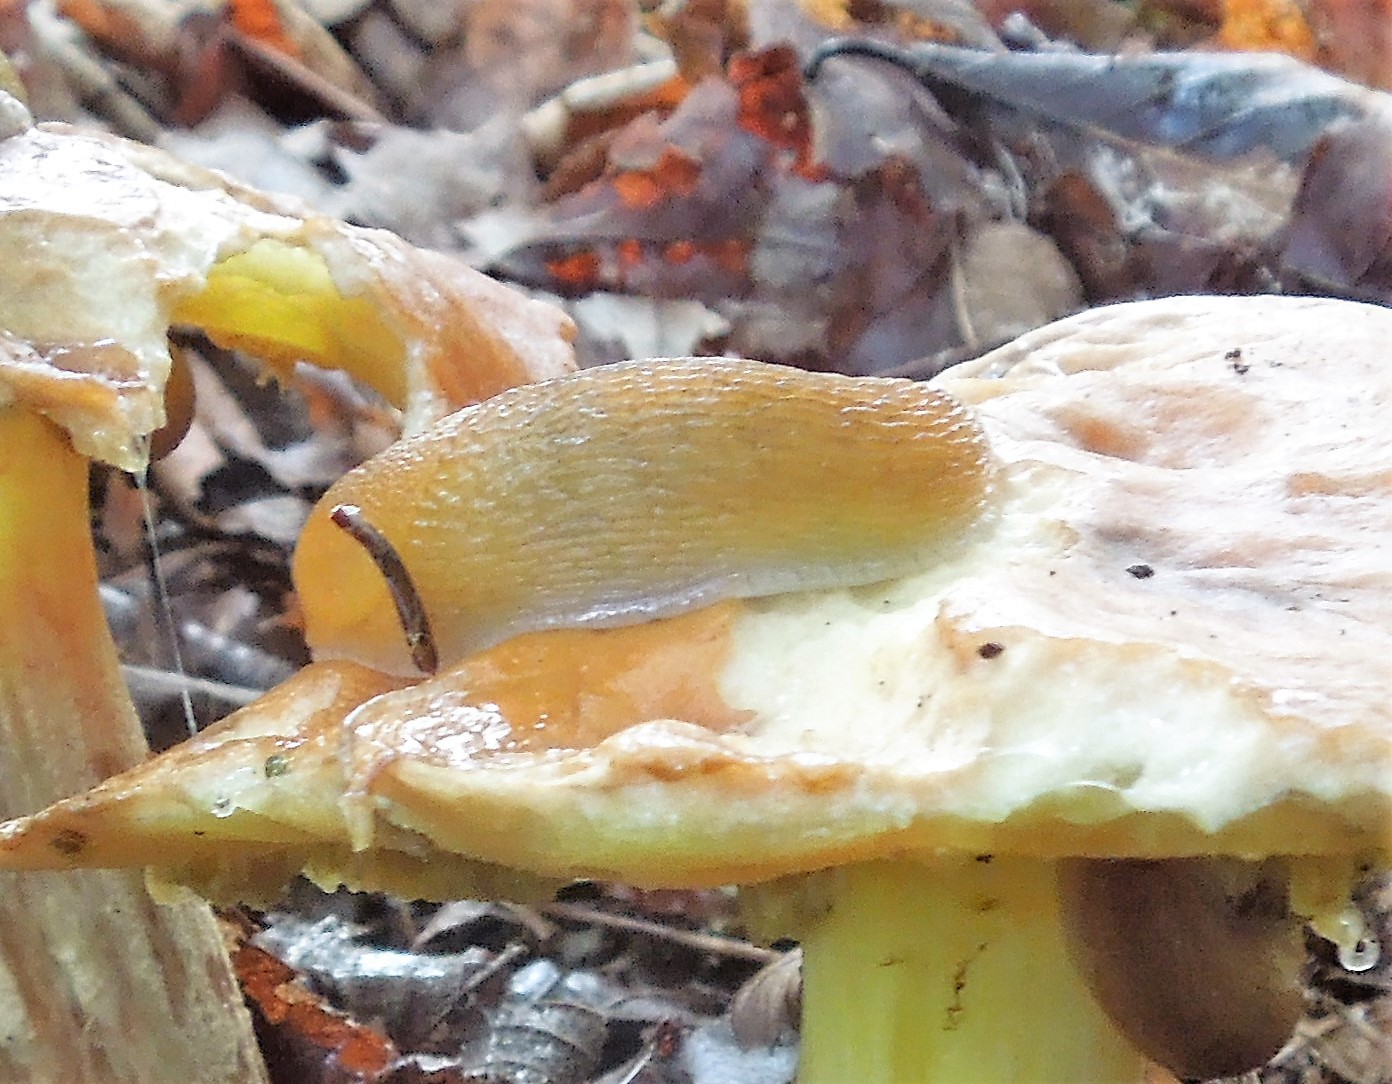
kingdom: Animalia
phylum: Mollusca
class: Gastropoda
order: Stylommatophora
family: Arionidae
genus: Mesarion
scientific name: Mesarion
